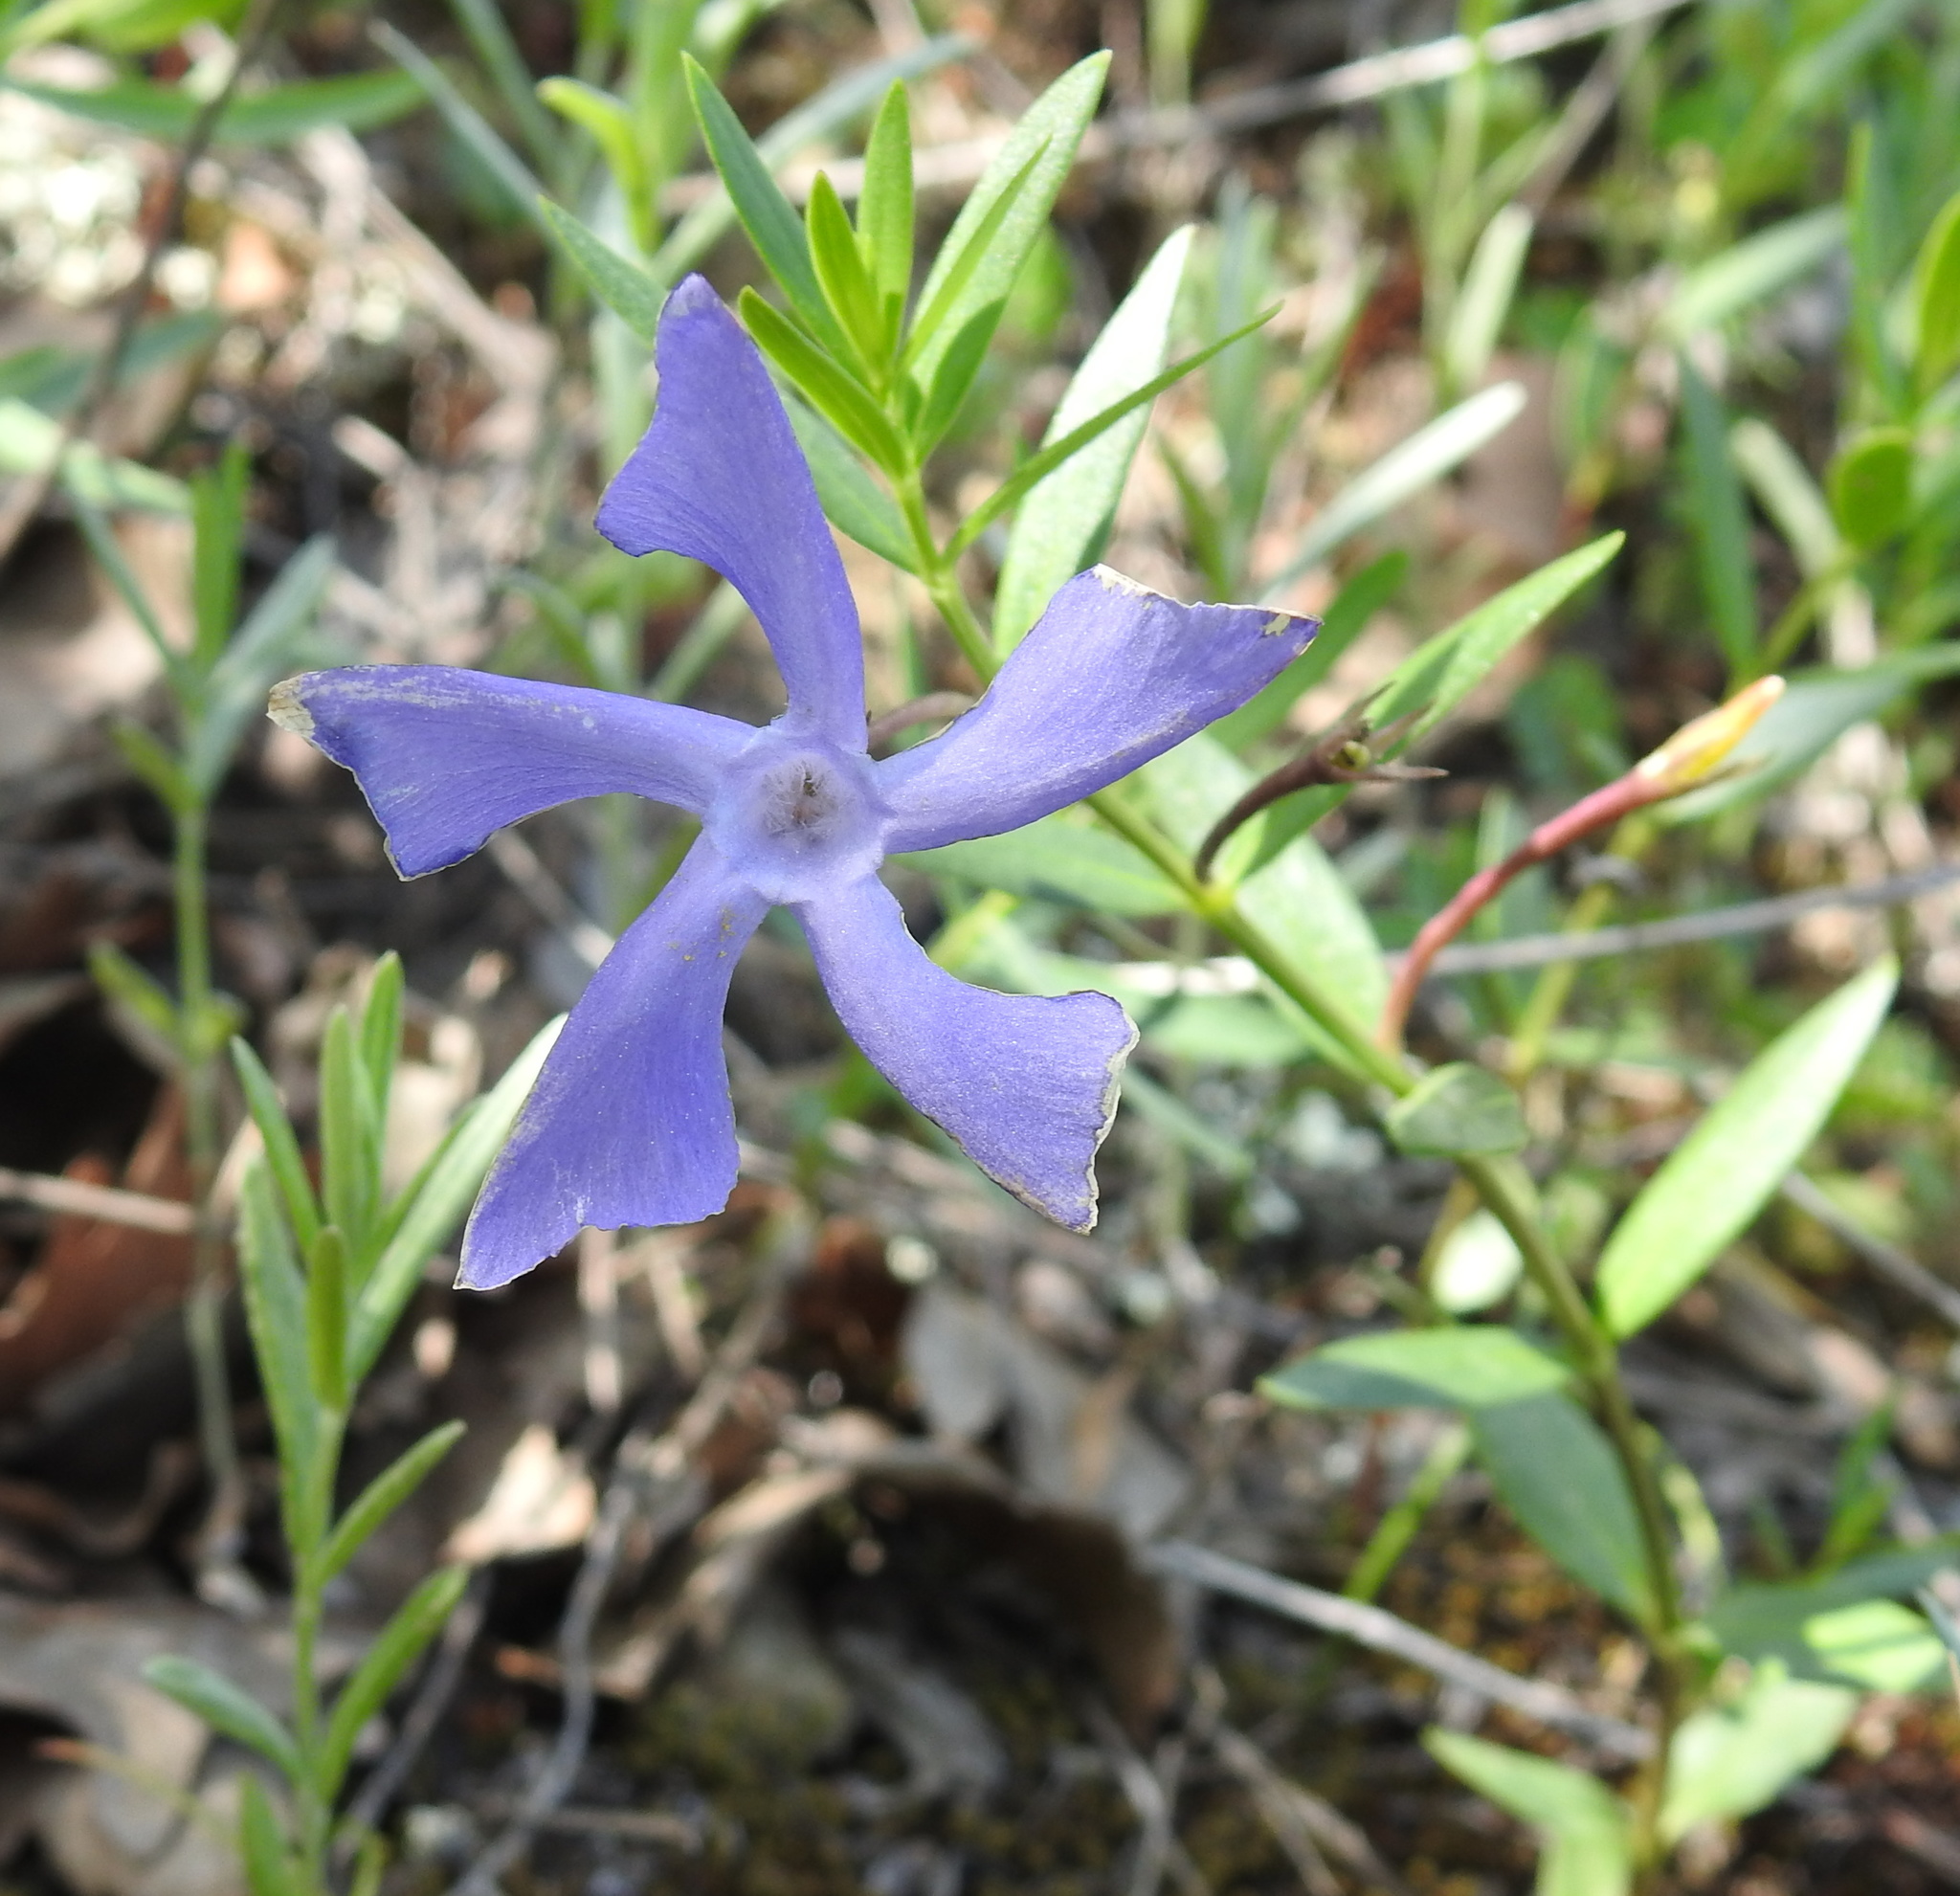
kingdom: Plantae
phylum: Tracheophyta
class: Magnoliopsida
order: Gentianales
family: Apocynaceae
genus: Vinca
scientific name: Vinca herbacea
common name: Herbaceous periwinkle
